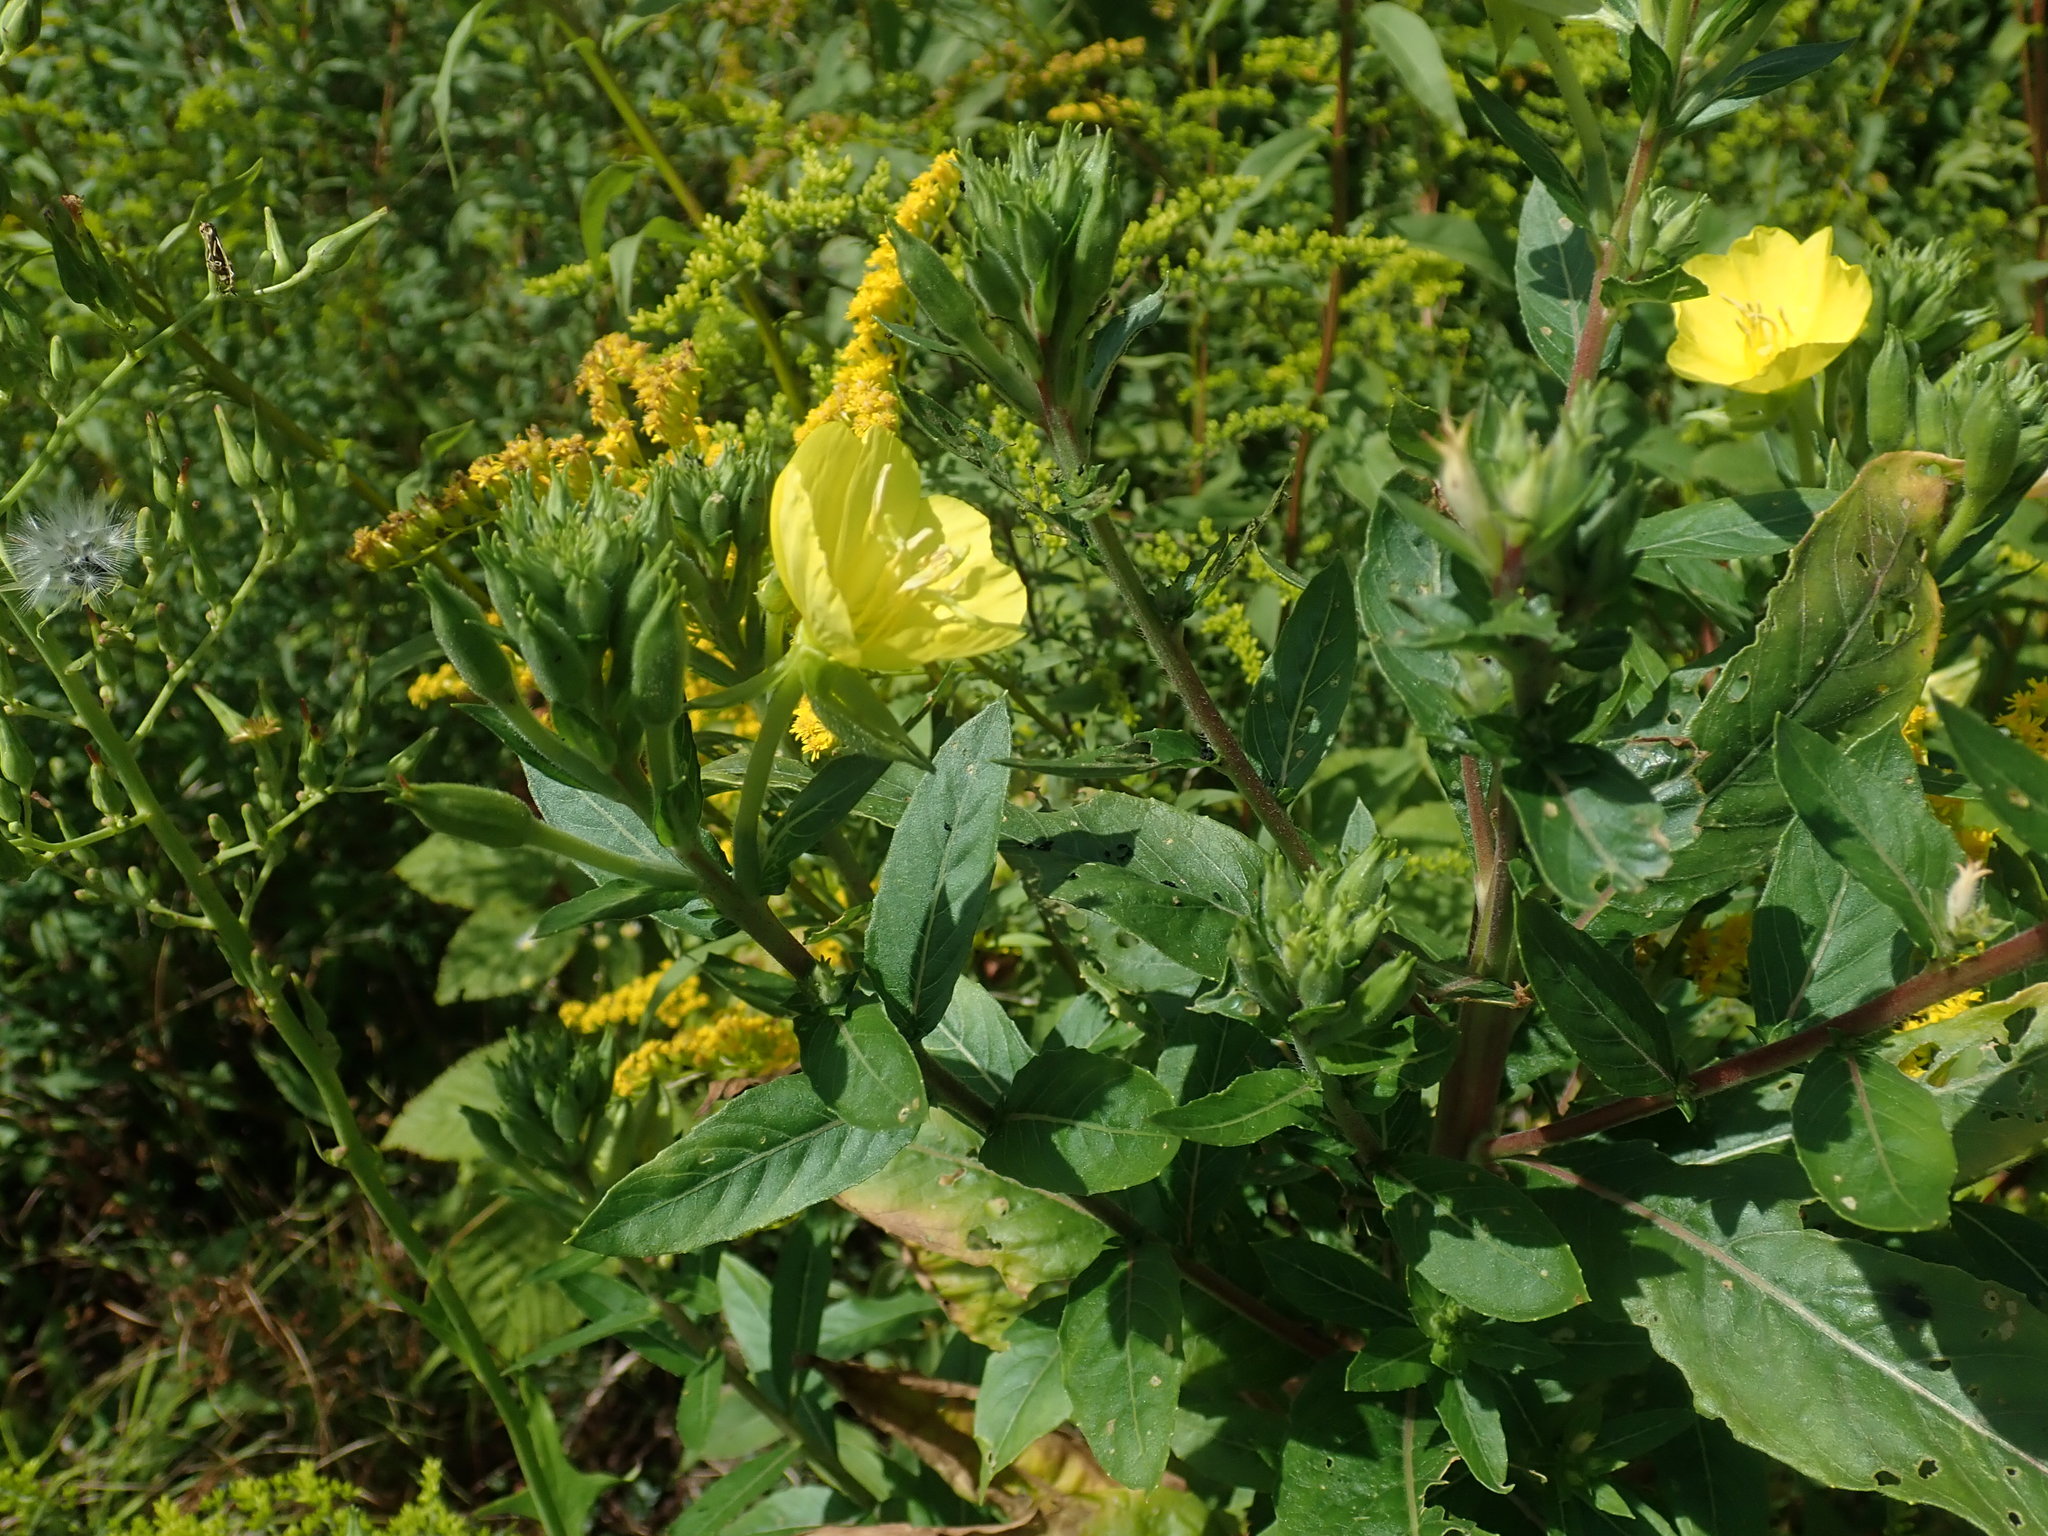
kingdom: Plantae
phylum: Tracheophyta
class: Magnoliopsida
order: Myrtales
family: Onagraceae
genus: Oenothera
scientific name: Oenothera biennis
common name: Common evening-primrose
